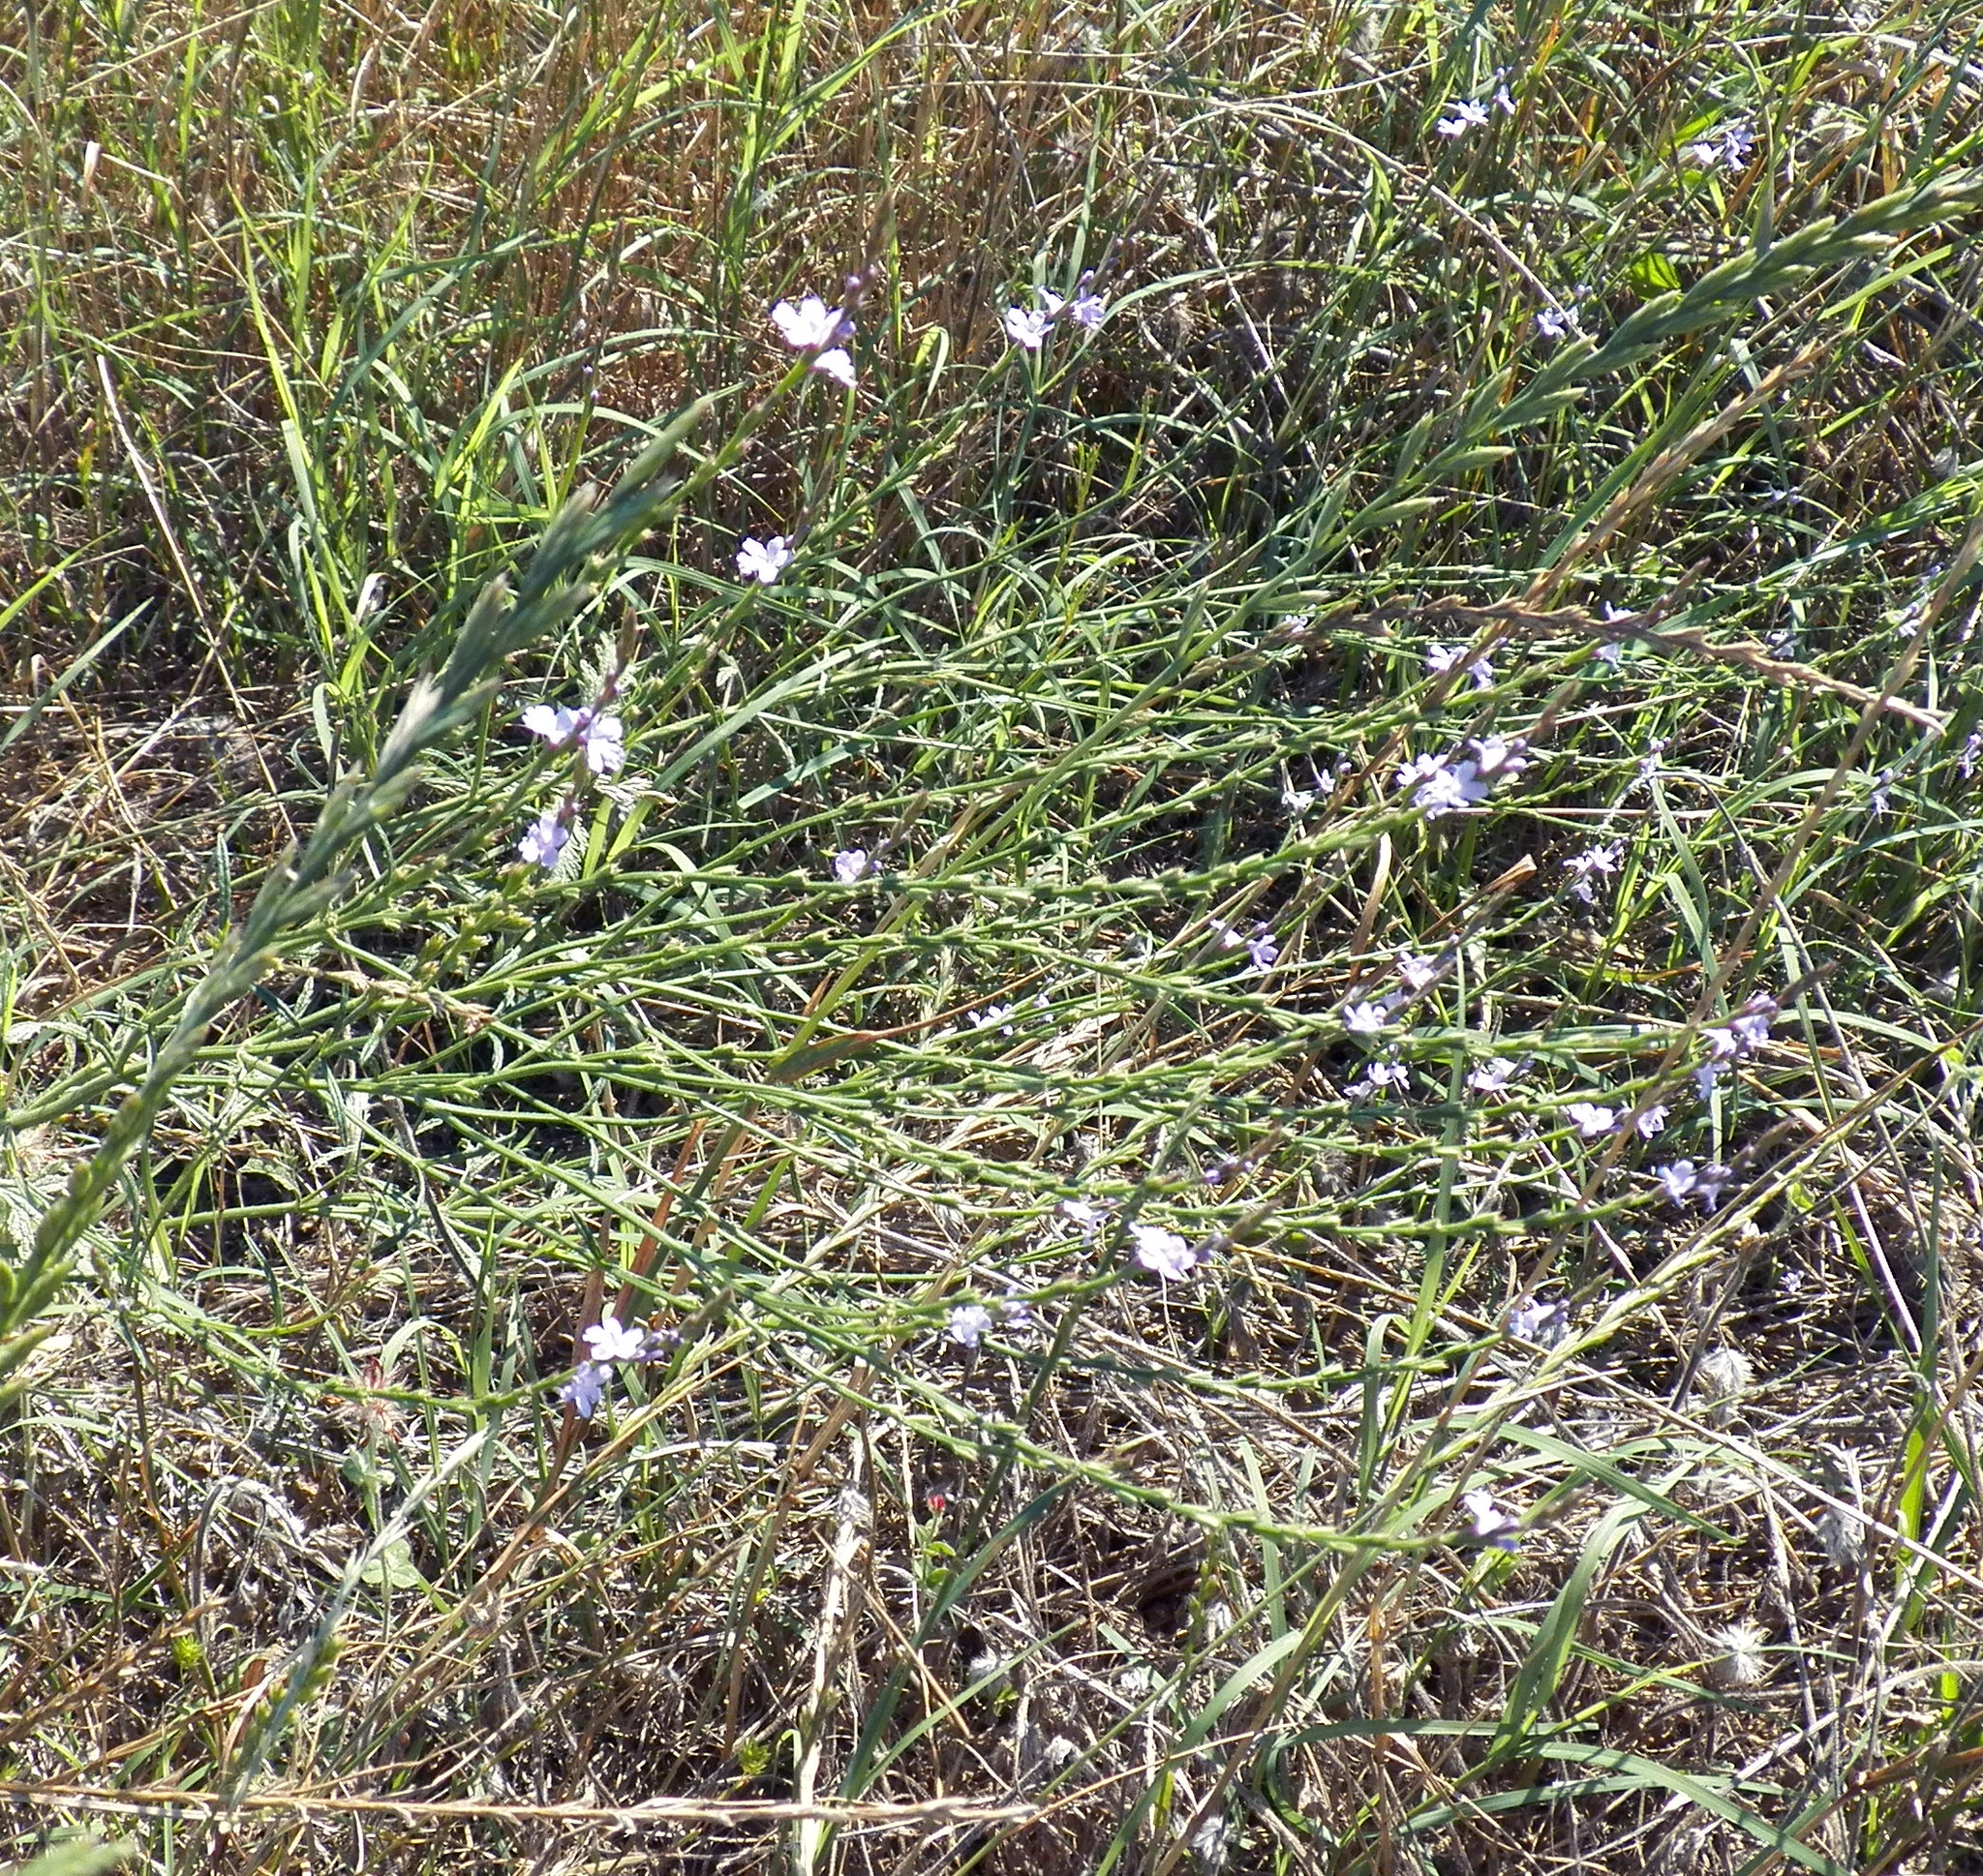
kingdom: Plantae
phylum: Tracheophyta
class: Magnoliopsida
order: Lamiales
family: Verbenaceae
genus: Verbena
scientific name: Verbena halei
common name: Texas vervain
